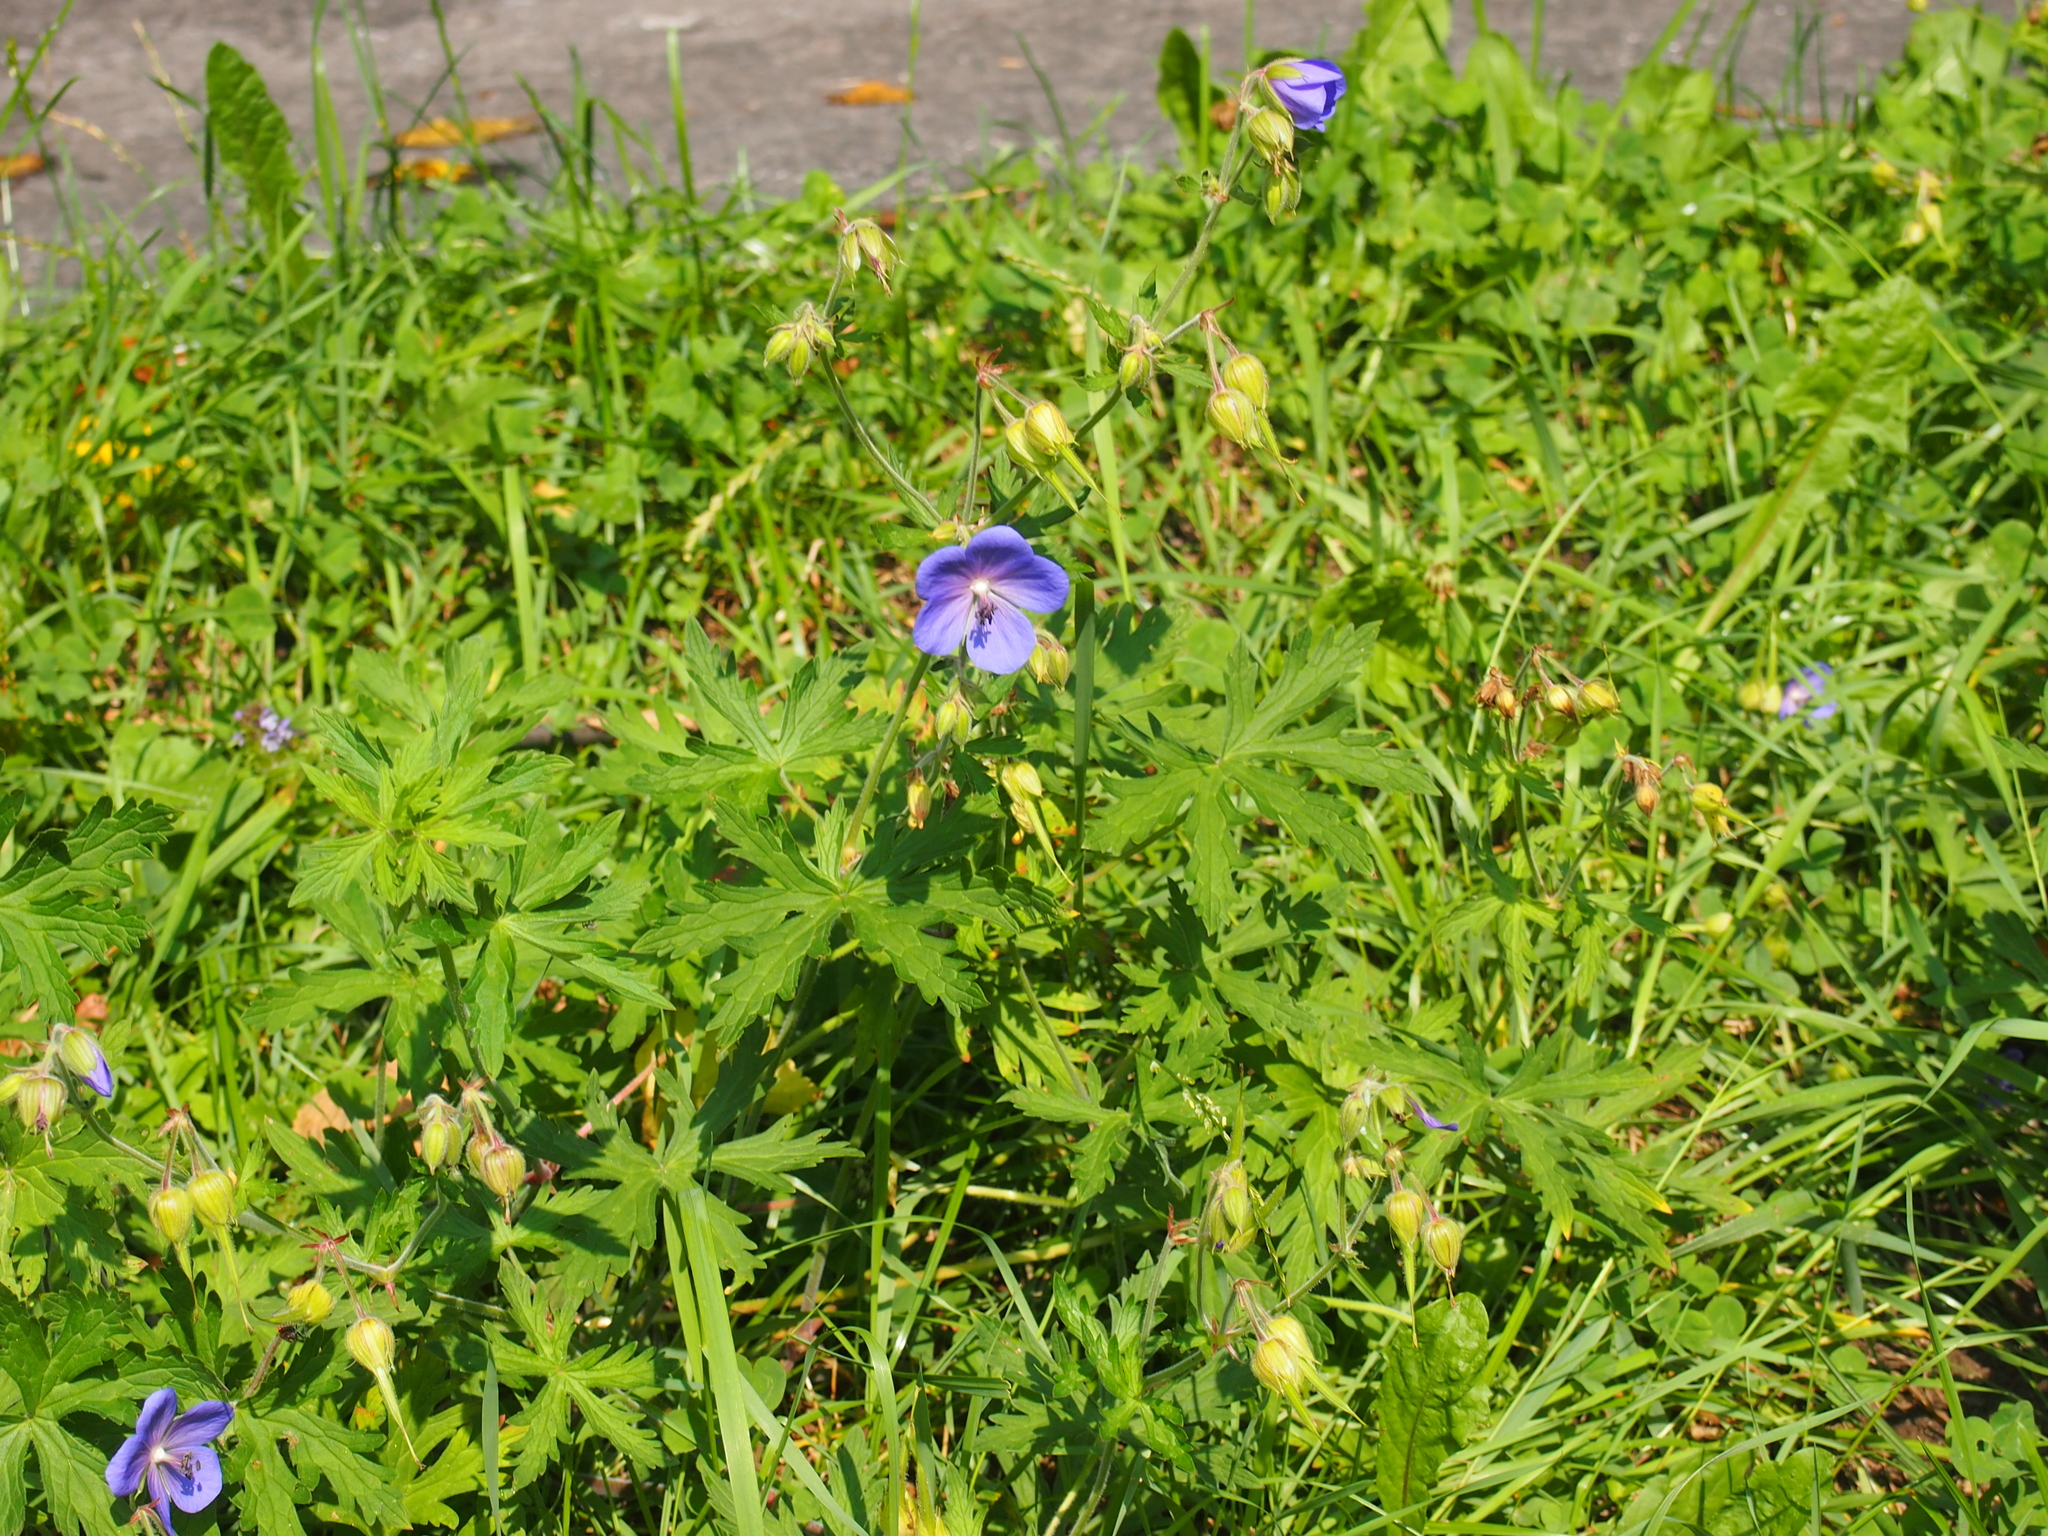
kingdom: Plantae
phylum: Tracheophyta
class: Magnoliopsida
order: Geraniales
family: Geraniaceae
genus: Geranium
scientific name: Geranium pratense
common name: Meadow crane's-bill
